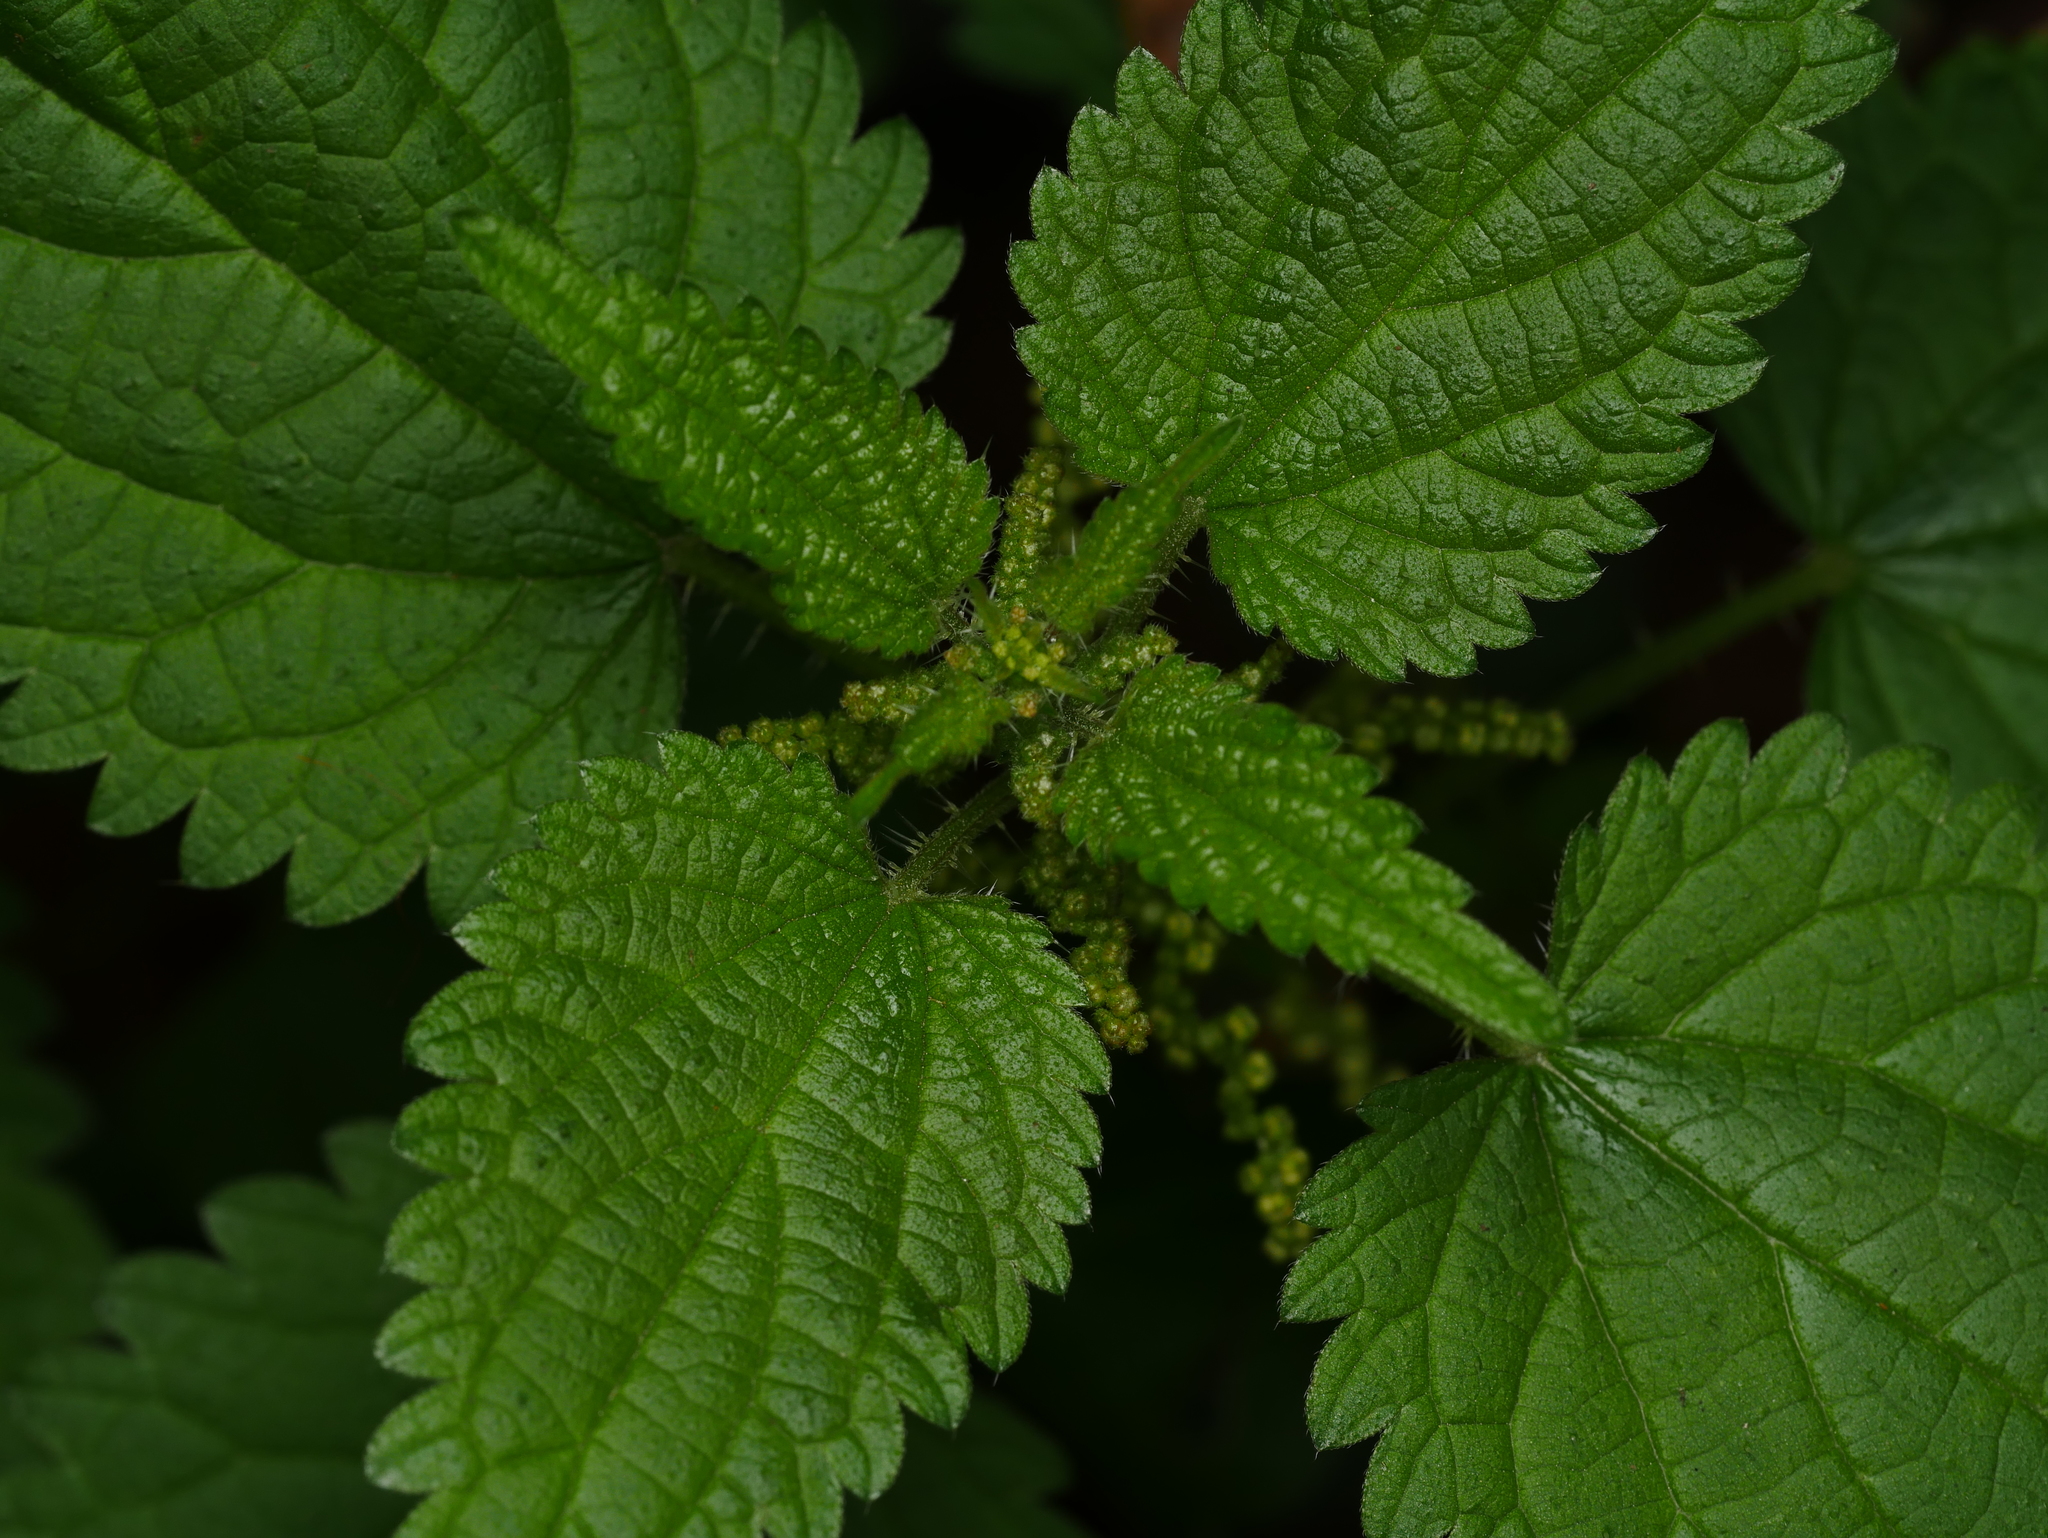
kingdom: Plantae
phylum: Tracheophyta
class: Magnoliopsida
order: Rosales
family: Urticaceae
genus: Urtica
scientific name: Urtica dioica
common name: Common nettle
